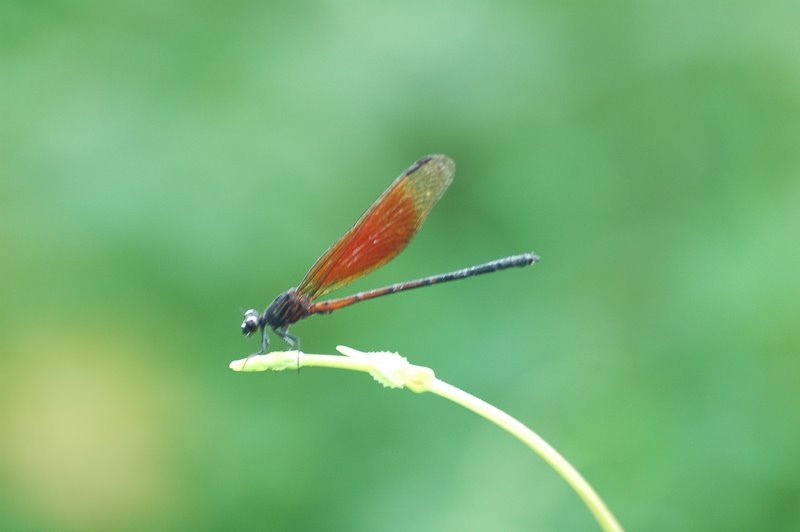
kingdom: Animalia
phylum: Arthropoda
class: Insecta
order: Odonata
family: Euphaeidae
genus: Euphaea
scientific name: Euphaea ochracea
